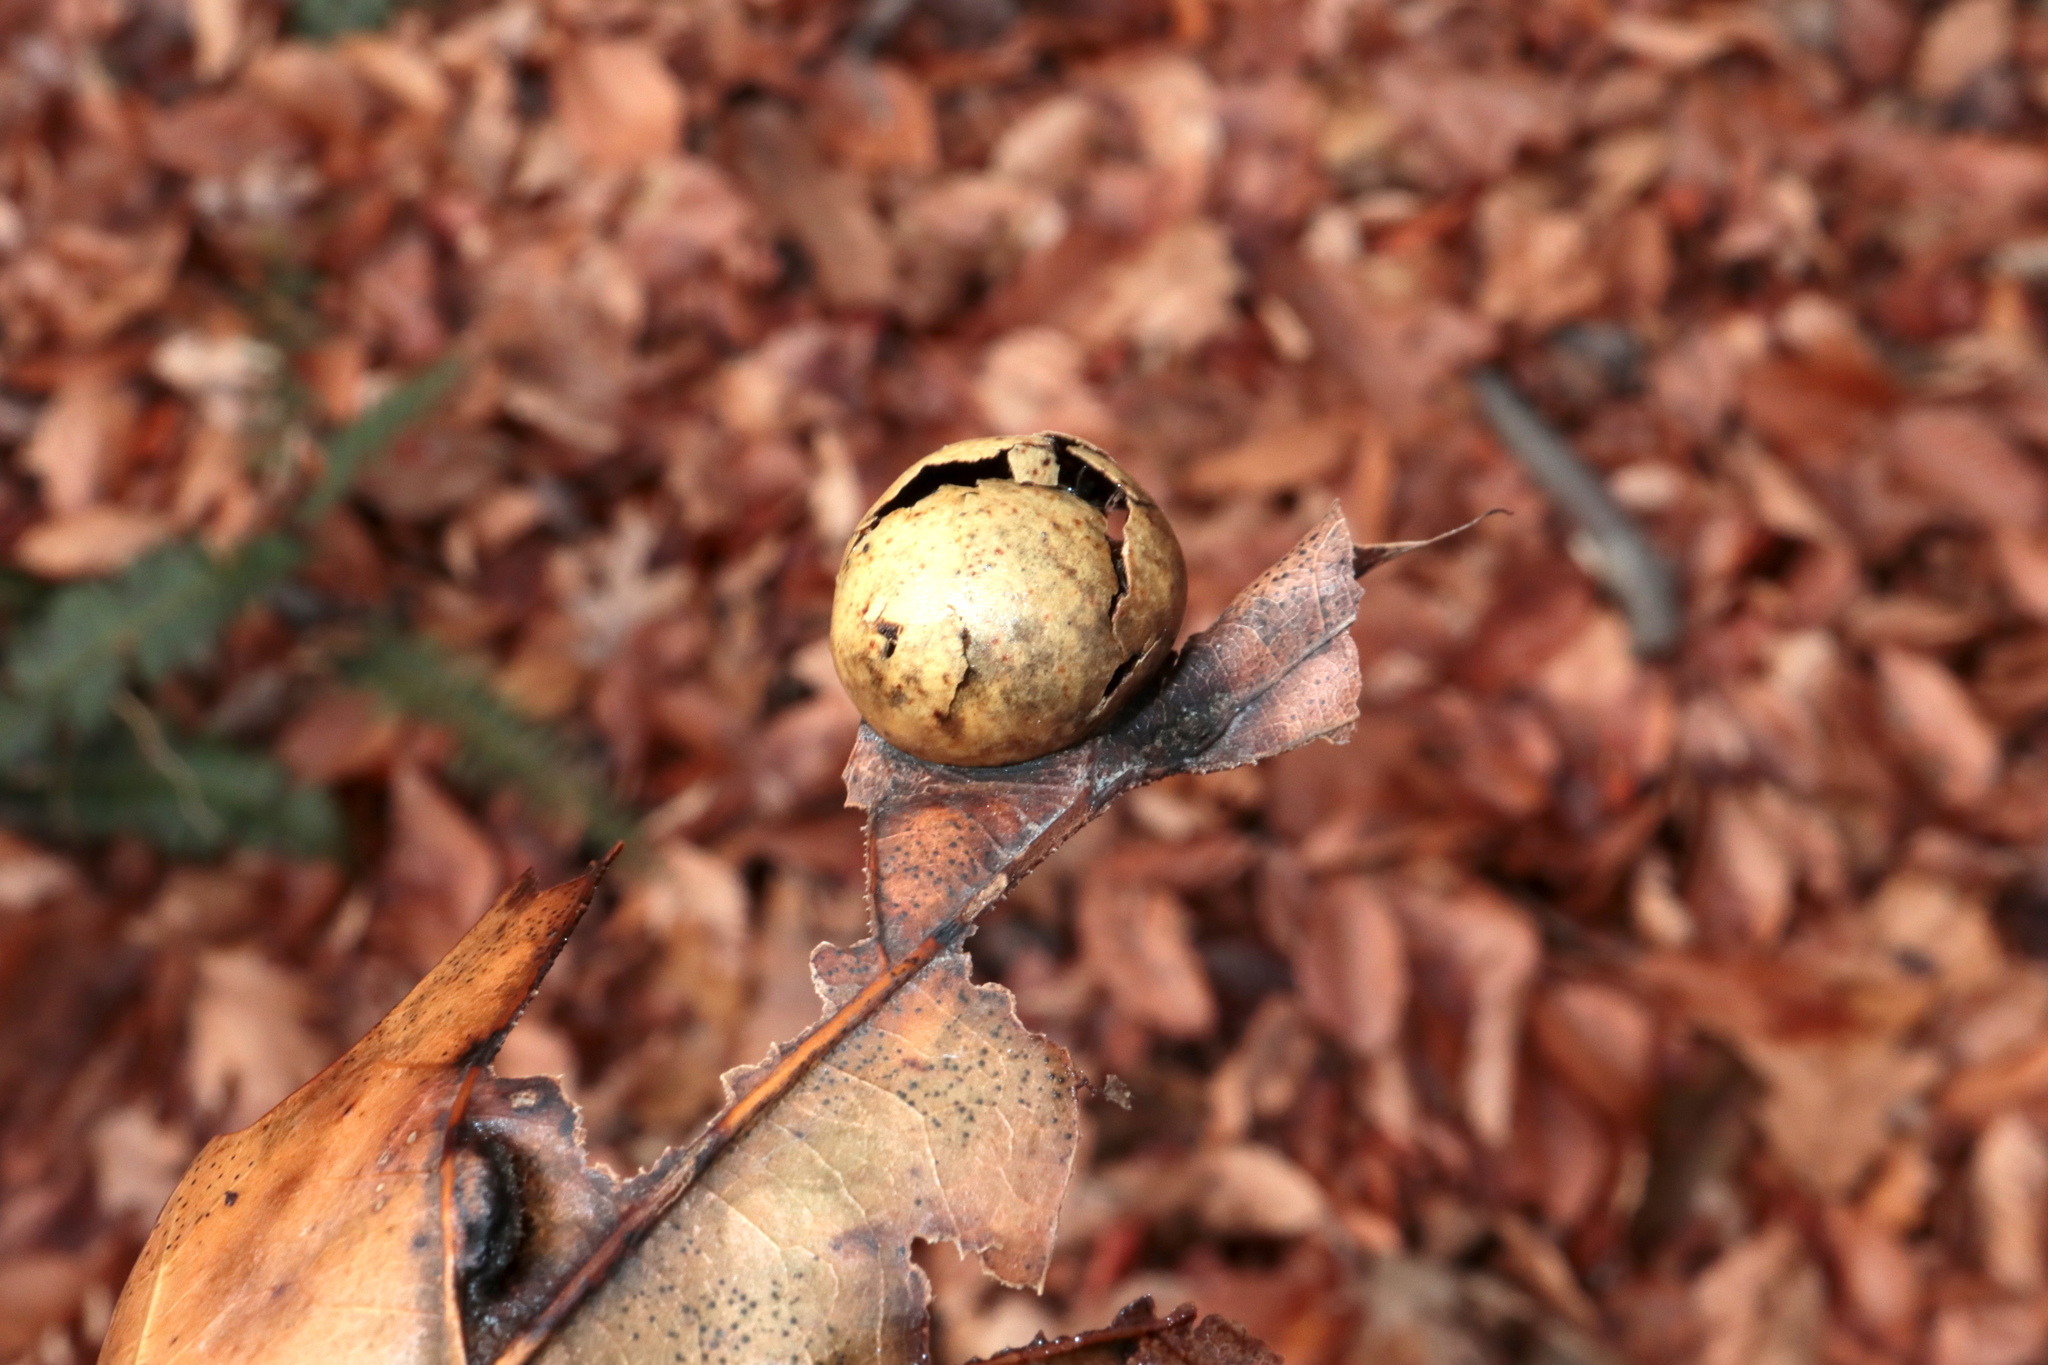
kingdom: Animalia
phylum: Arthropoda
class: Insecta
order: Hymenoptera
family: Cynipidae
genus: Amphibolips
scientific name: Amphibolips
